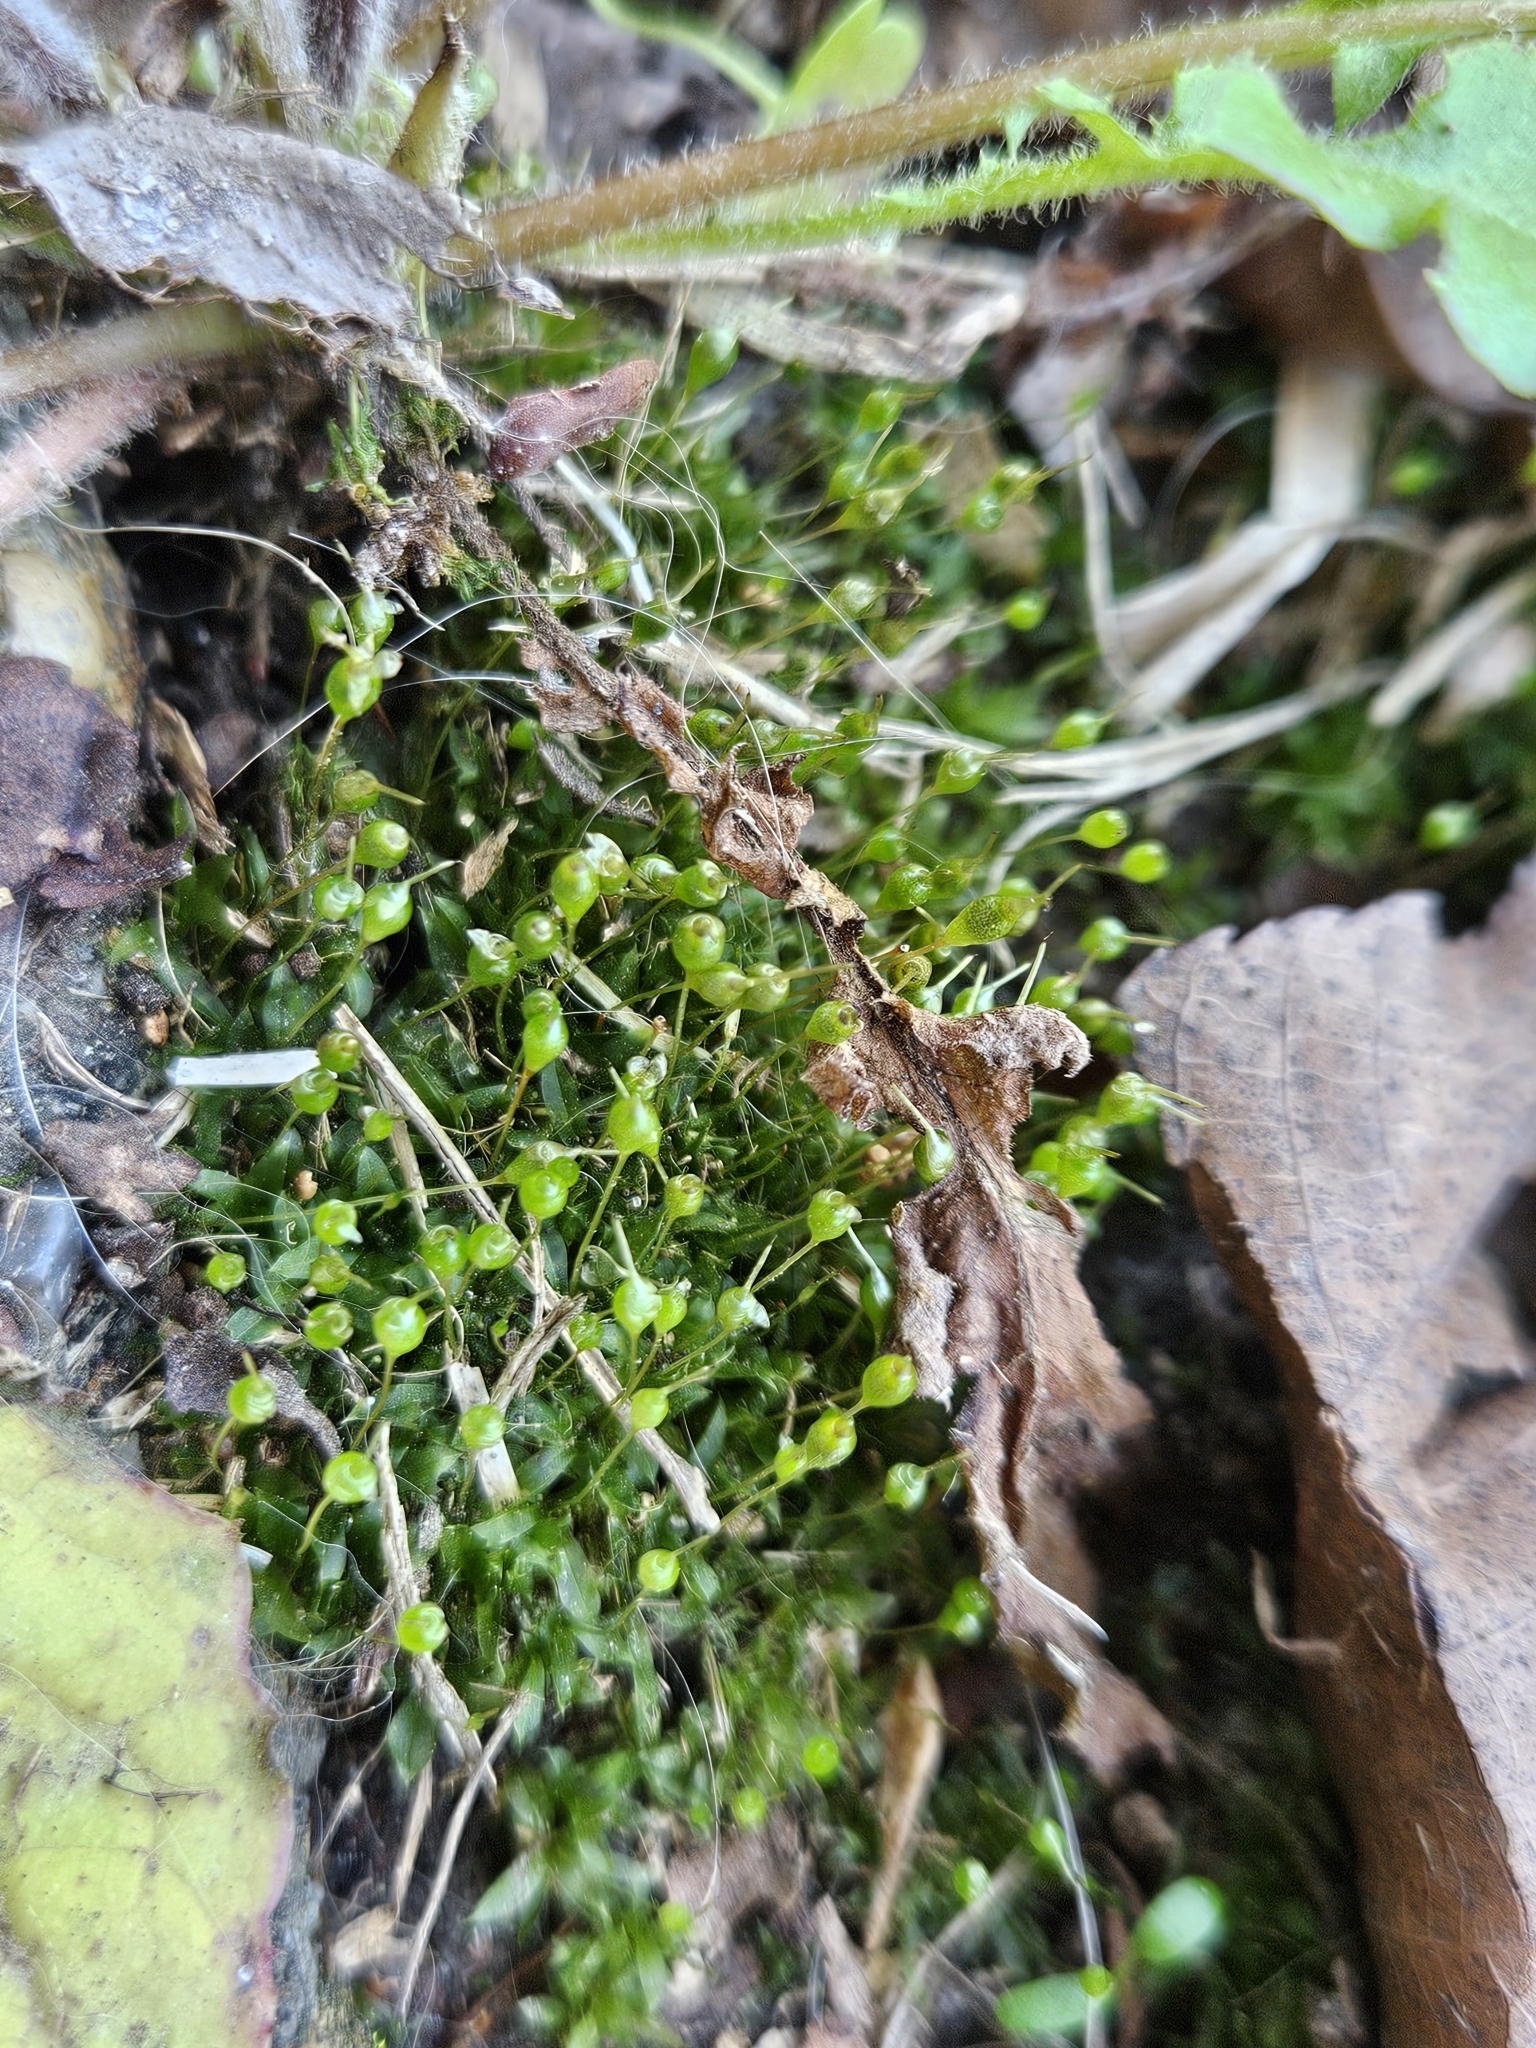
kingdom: Plantae
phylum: Bryophyta
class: Bryopsida
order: Funariales
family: Funariaceae
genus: Physcomitrium
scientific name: Physcomitrium pyriforme
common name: Common bladder-moss
